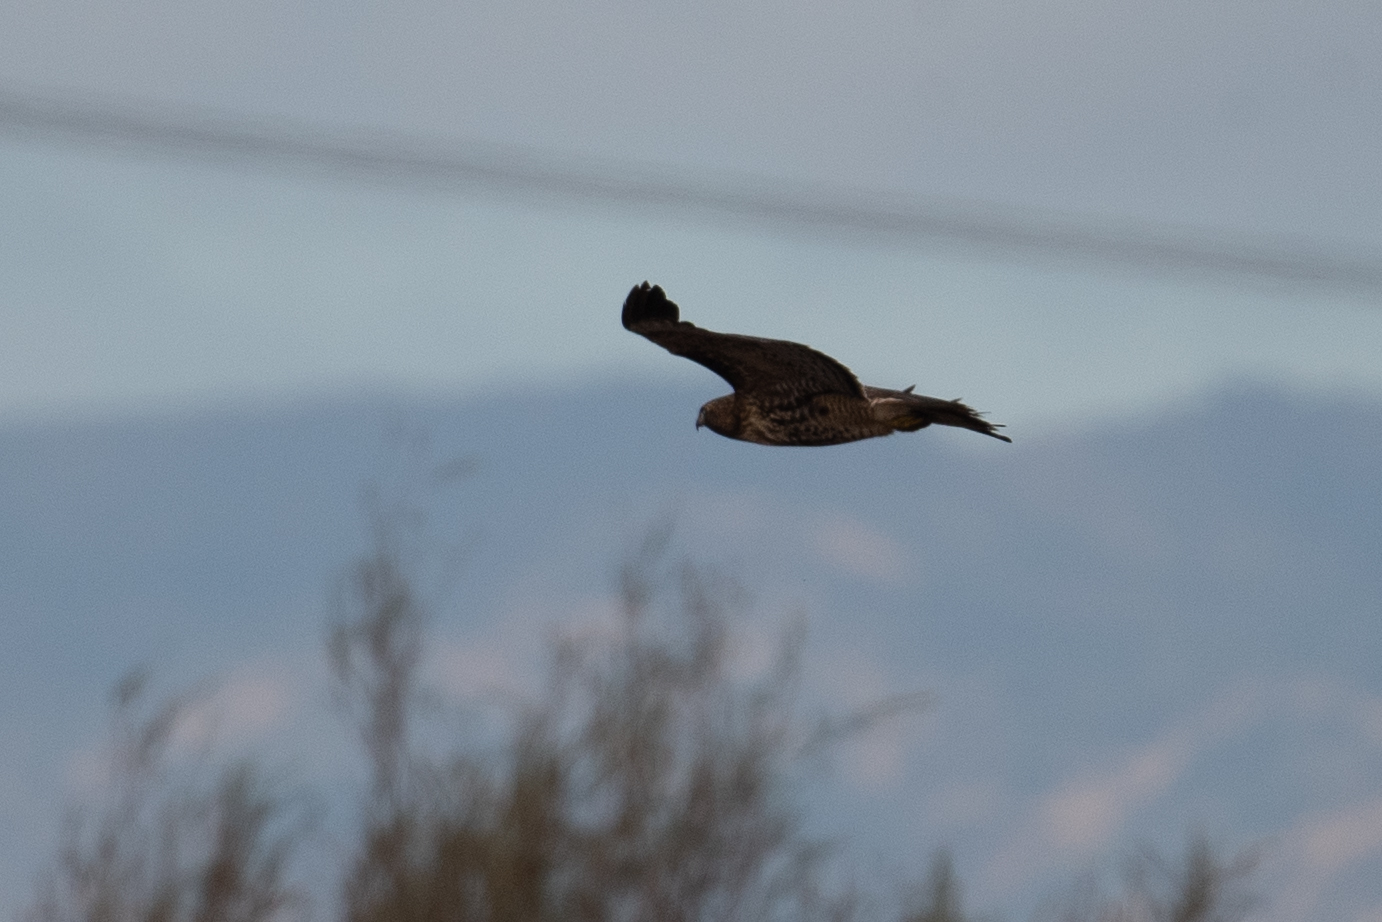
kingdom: Animalia
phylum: Chordata
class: Aves
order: Accipitriformes
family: Accipitridae
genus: Buteo
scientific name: Buteo jamaicensis
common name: Red-tailed hawk
